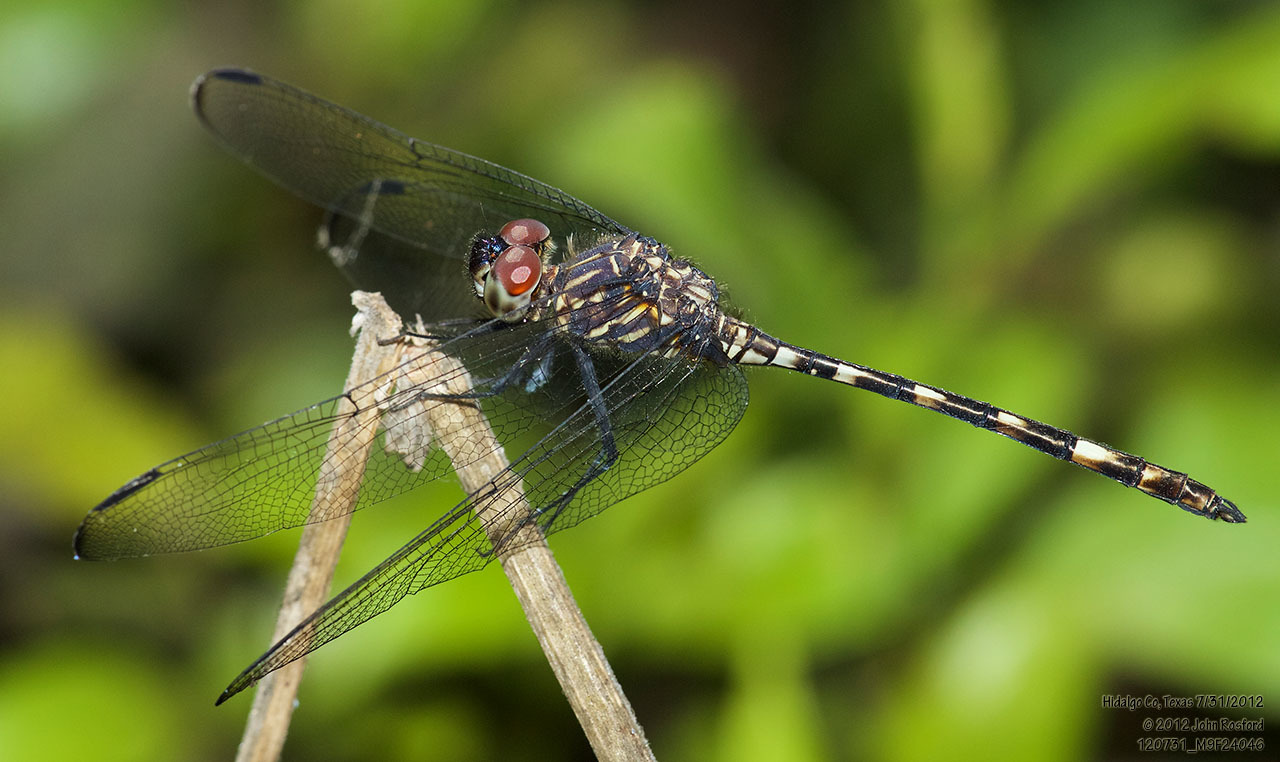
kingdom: Animalia
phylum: Arthropoda
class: Insecta
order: Odonata
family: Libellulidae
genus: Dythemis
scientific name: Dythemis nigrescens
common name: Black setwing
